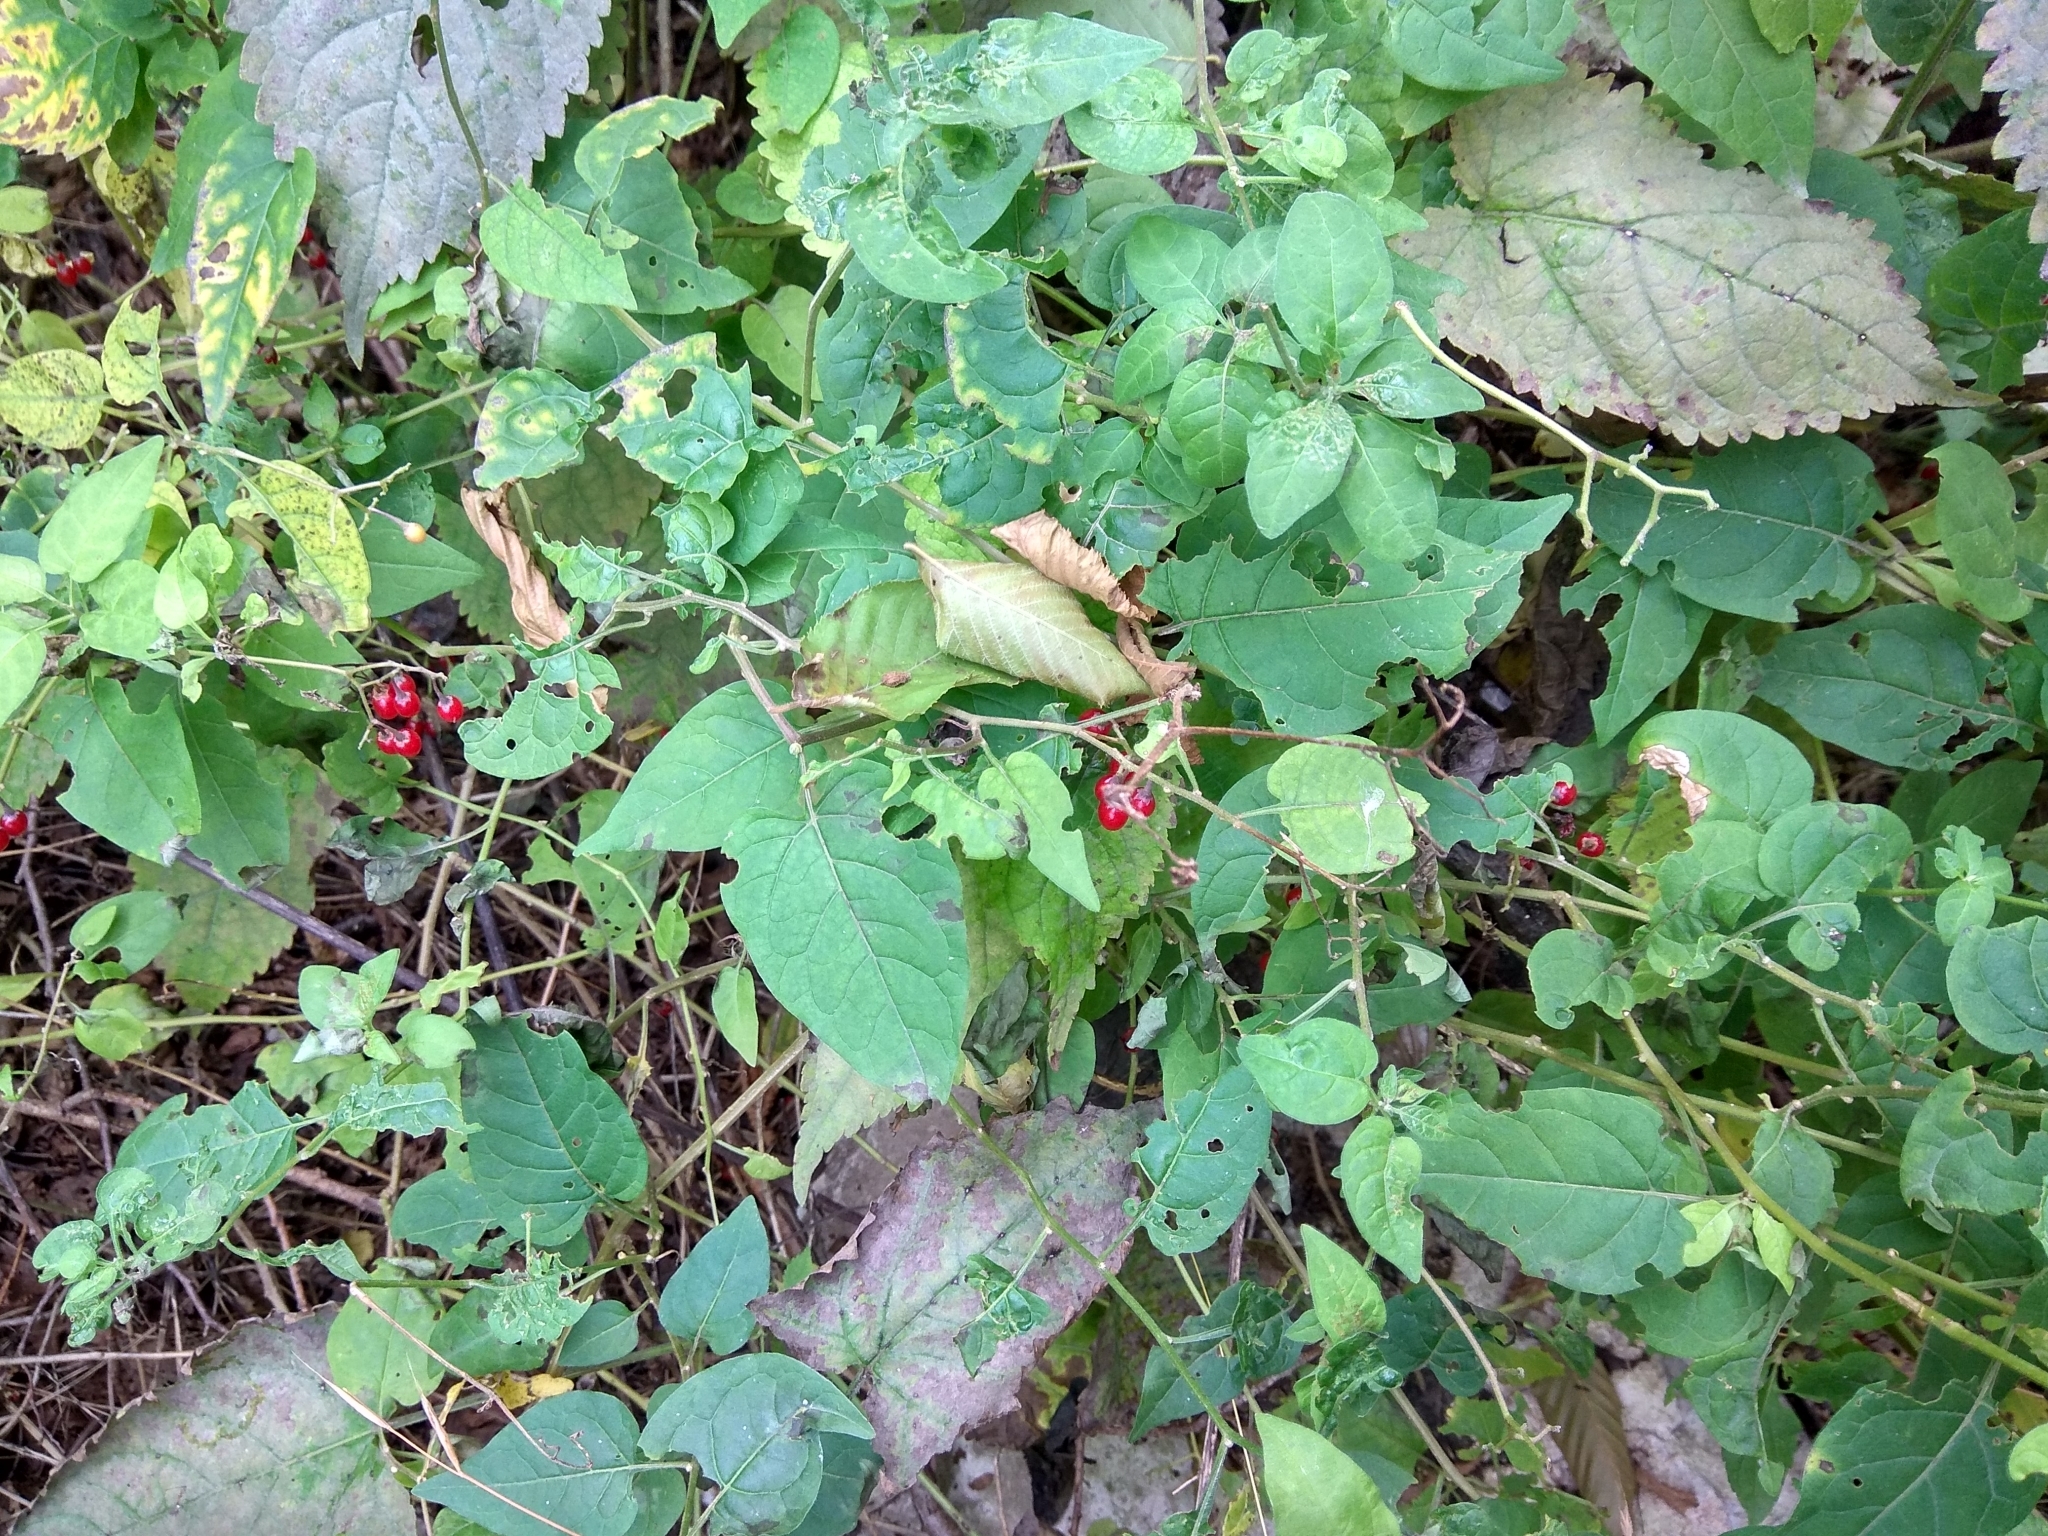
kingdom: Plantae
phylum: Tracheophyta
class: Magnoliopsida
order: Solanales
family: Solanaceae
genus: Solanum
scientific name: Solanum dulcamara
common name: Climbing nightshade
